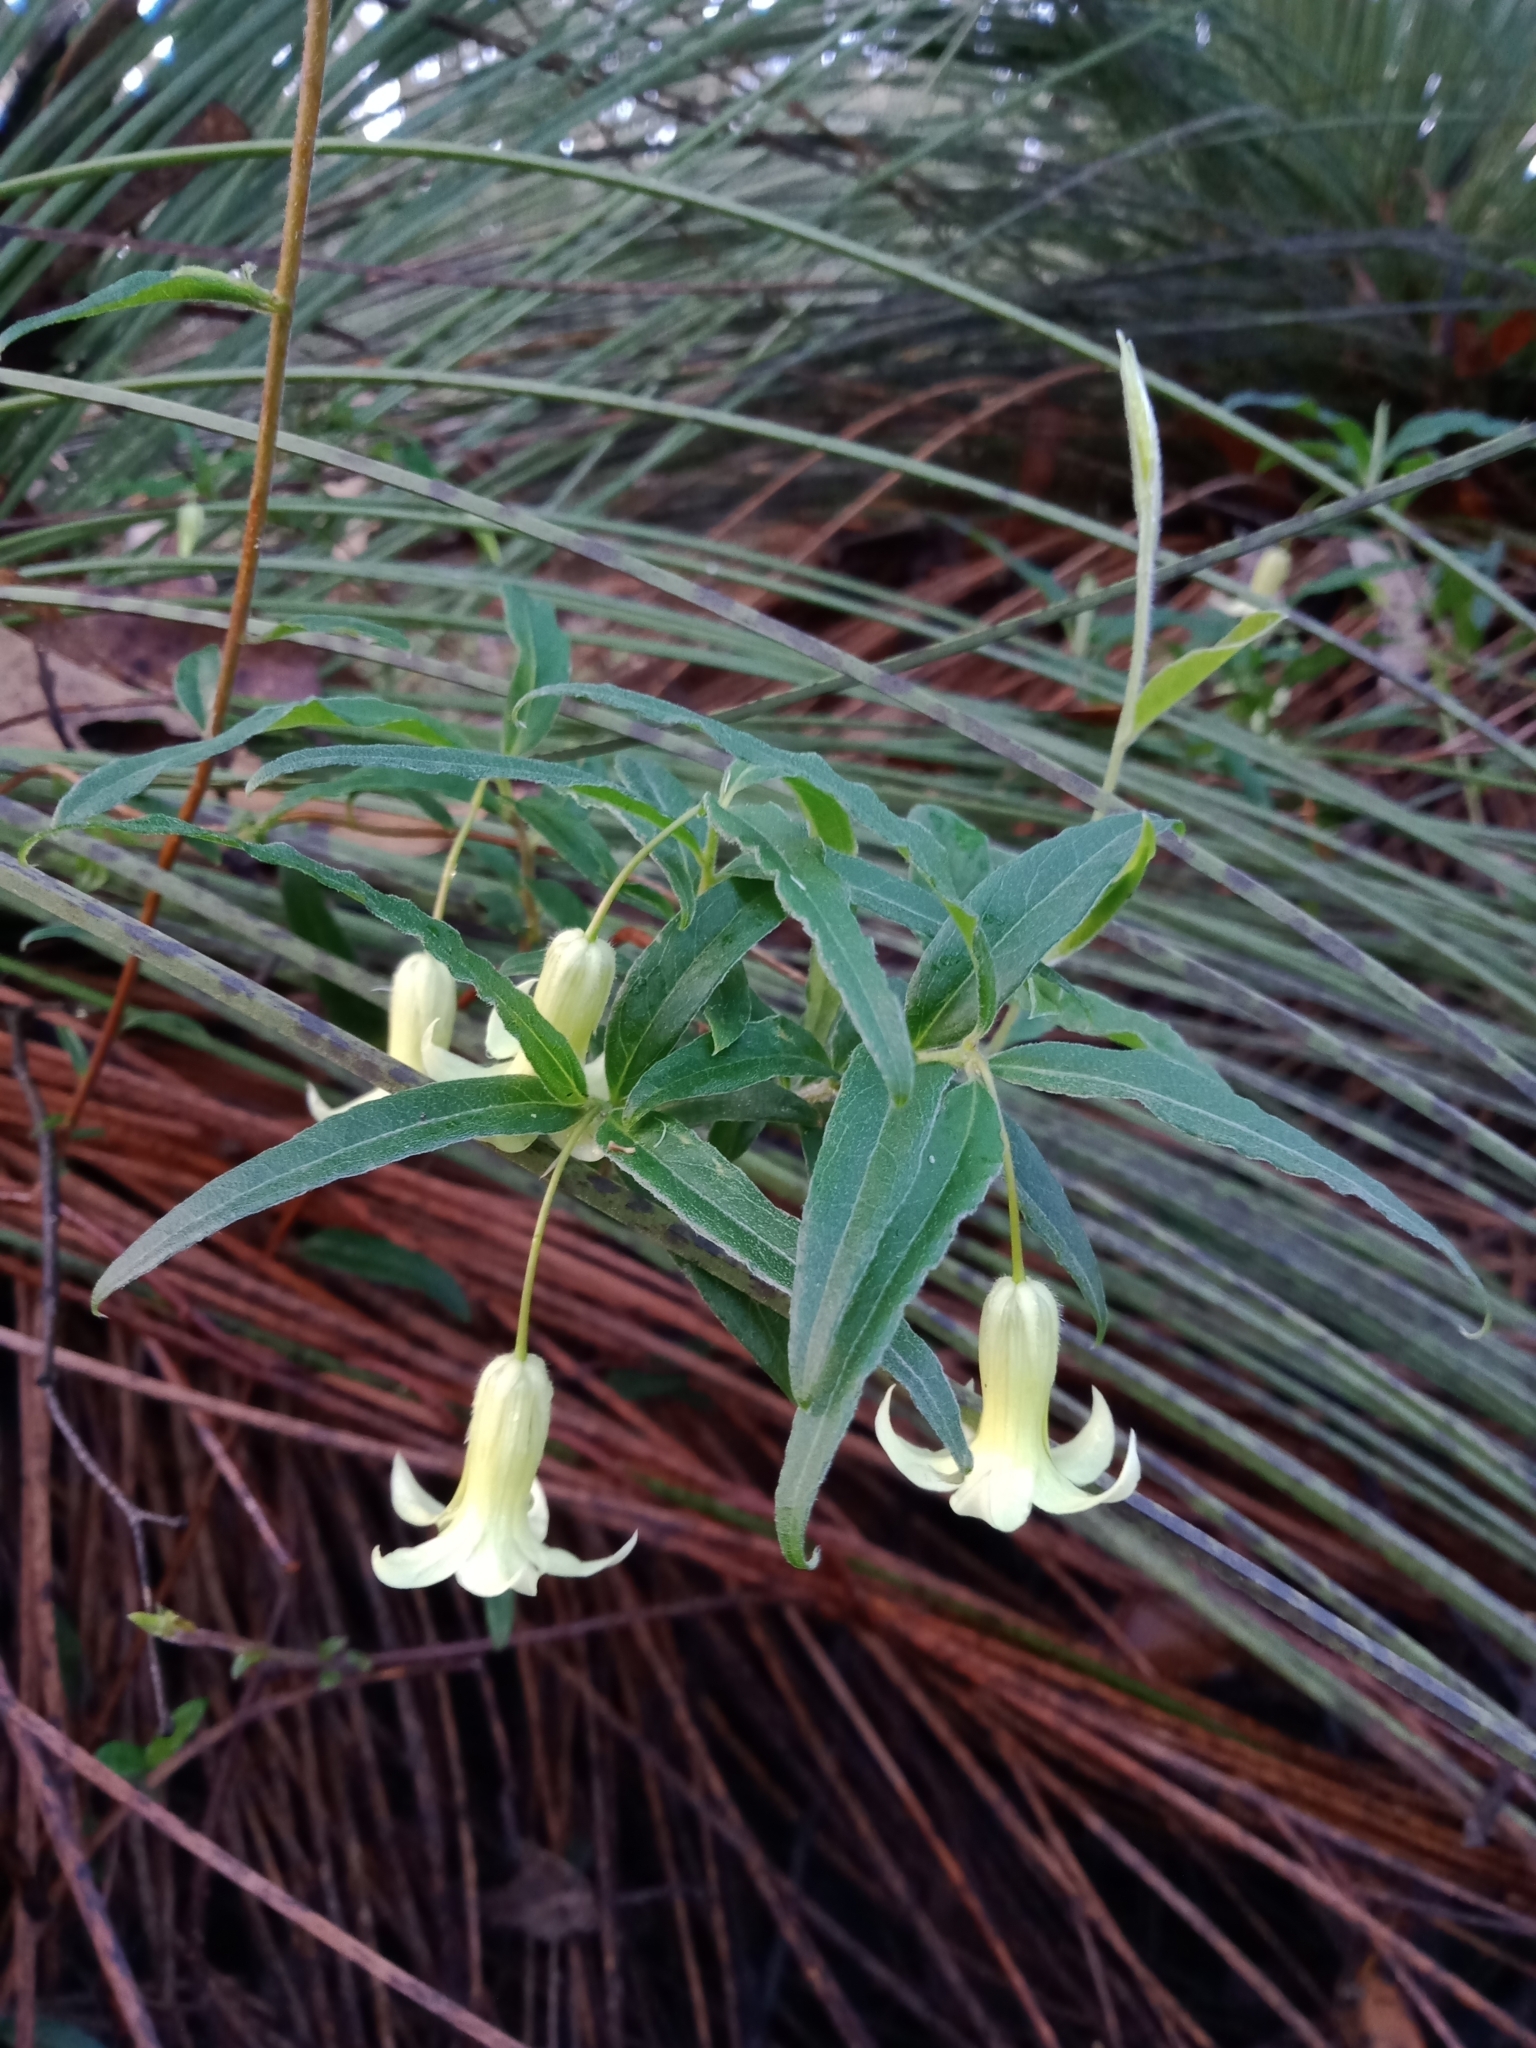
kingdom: Plantae
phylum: Tracheophyta
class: Magnoliopsida
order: Apiales
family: Pittosporaceae
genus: Billardiera
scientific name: Billardiera mutabilis
